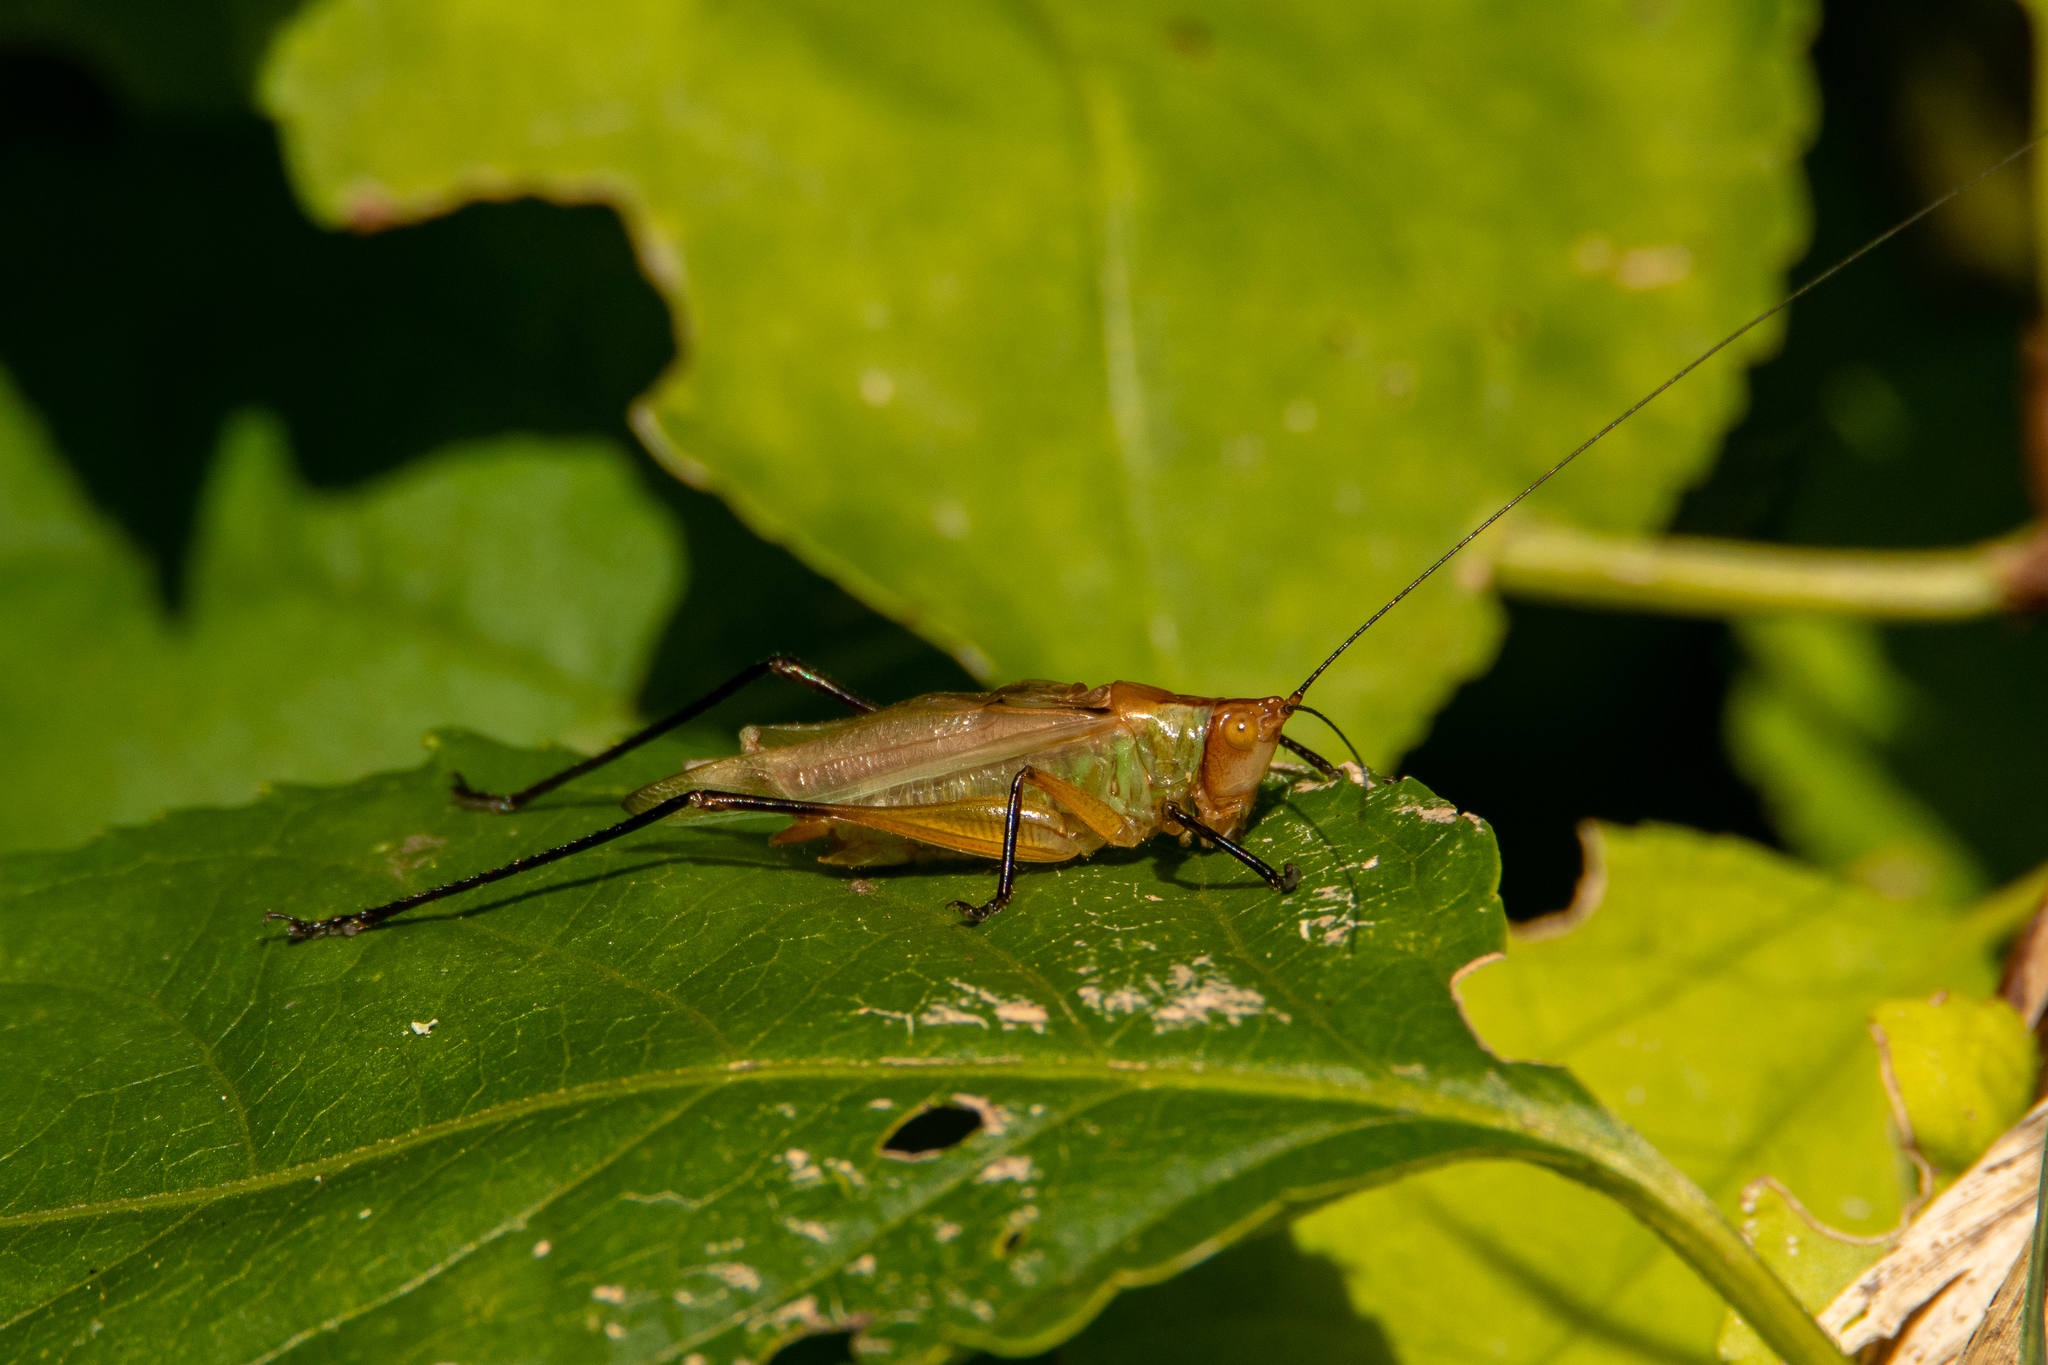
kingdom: Animalia
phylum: Arthropoda
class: Insecta
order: Orthoptera
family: Tettigoniidae
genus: Orchelimum
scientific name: Orchelimum nigripes
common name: Black-legged meadow katydid
